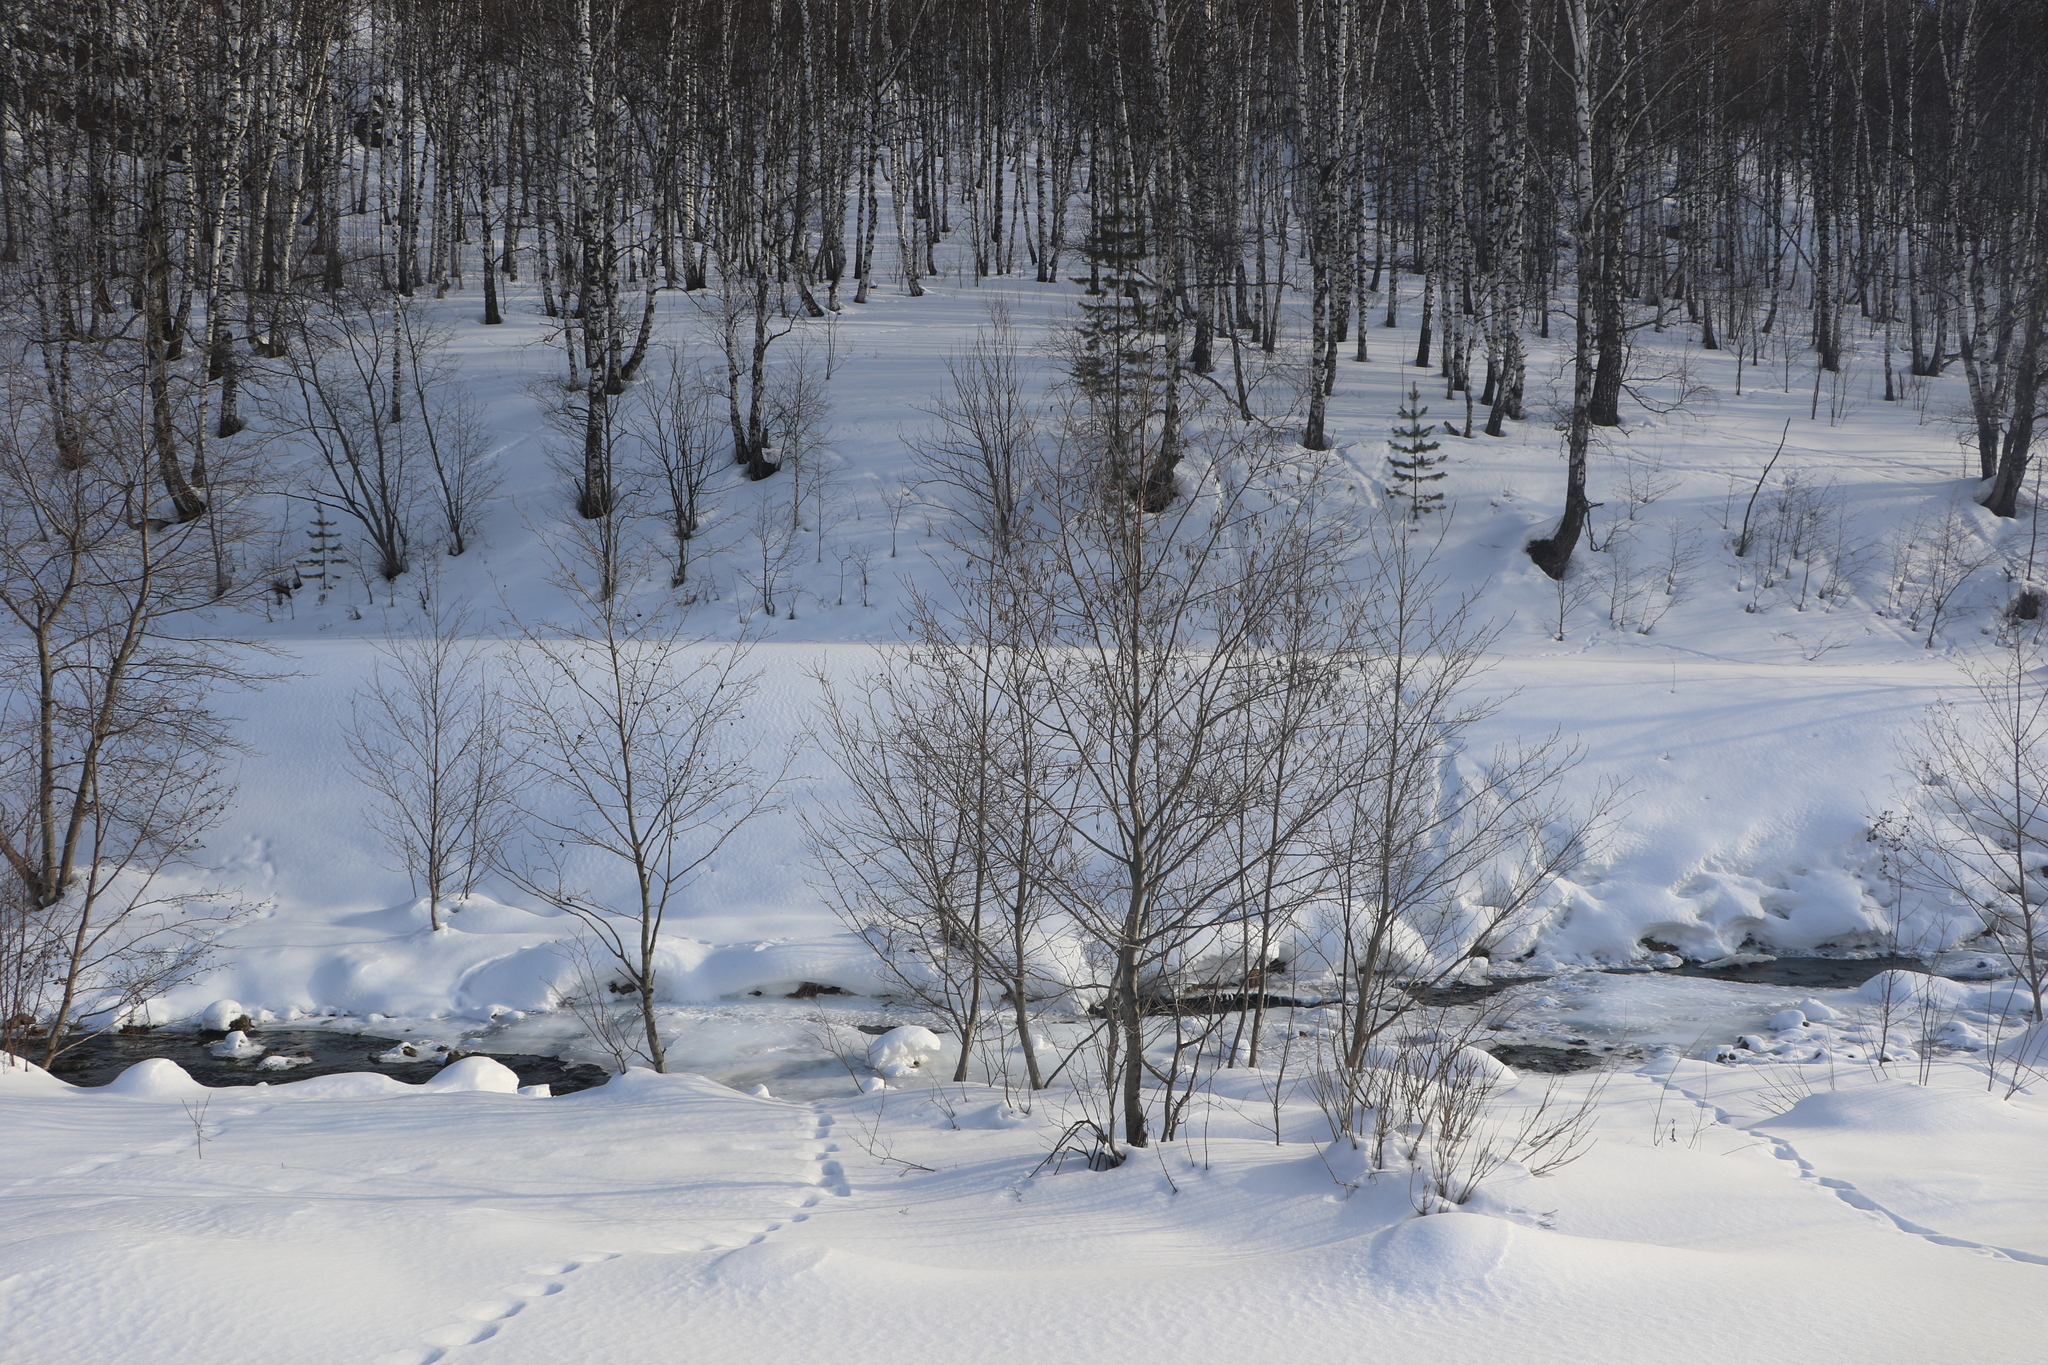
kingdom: Plantae
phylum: Tracheophyta
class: Magnoliopsida
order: Fagales
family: Betulaceae
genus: Alnus
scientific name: Alnus glutinosa
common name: Black alder
